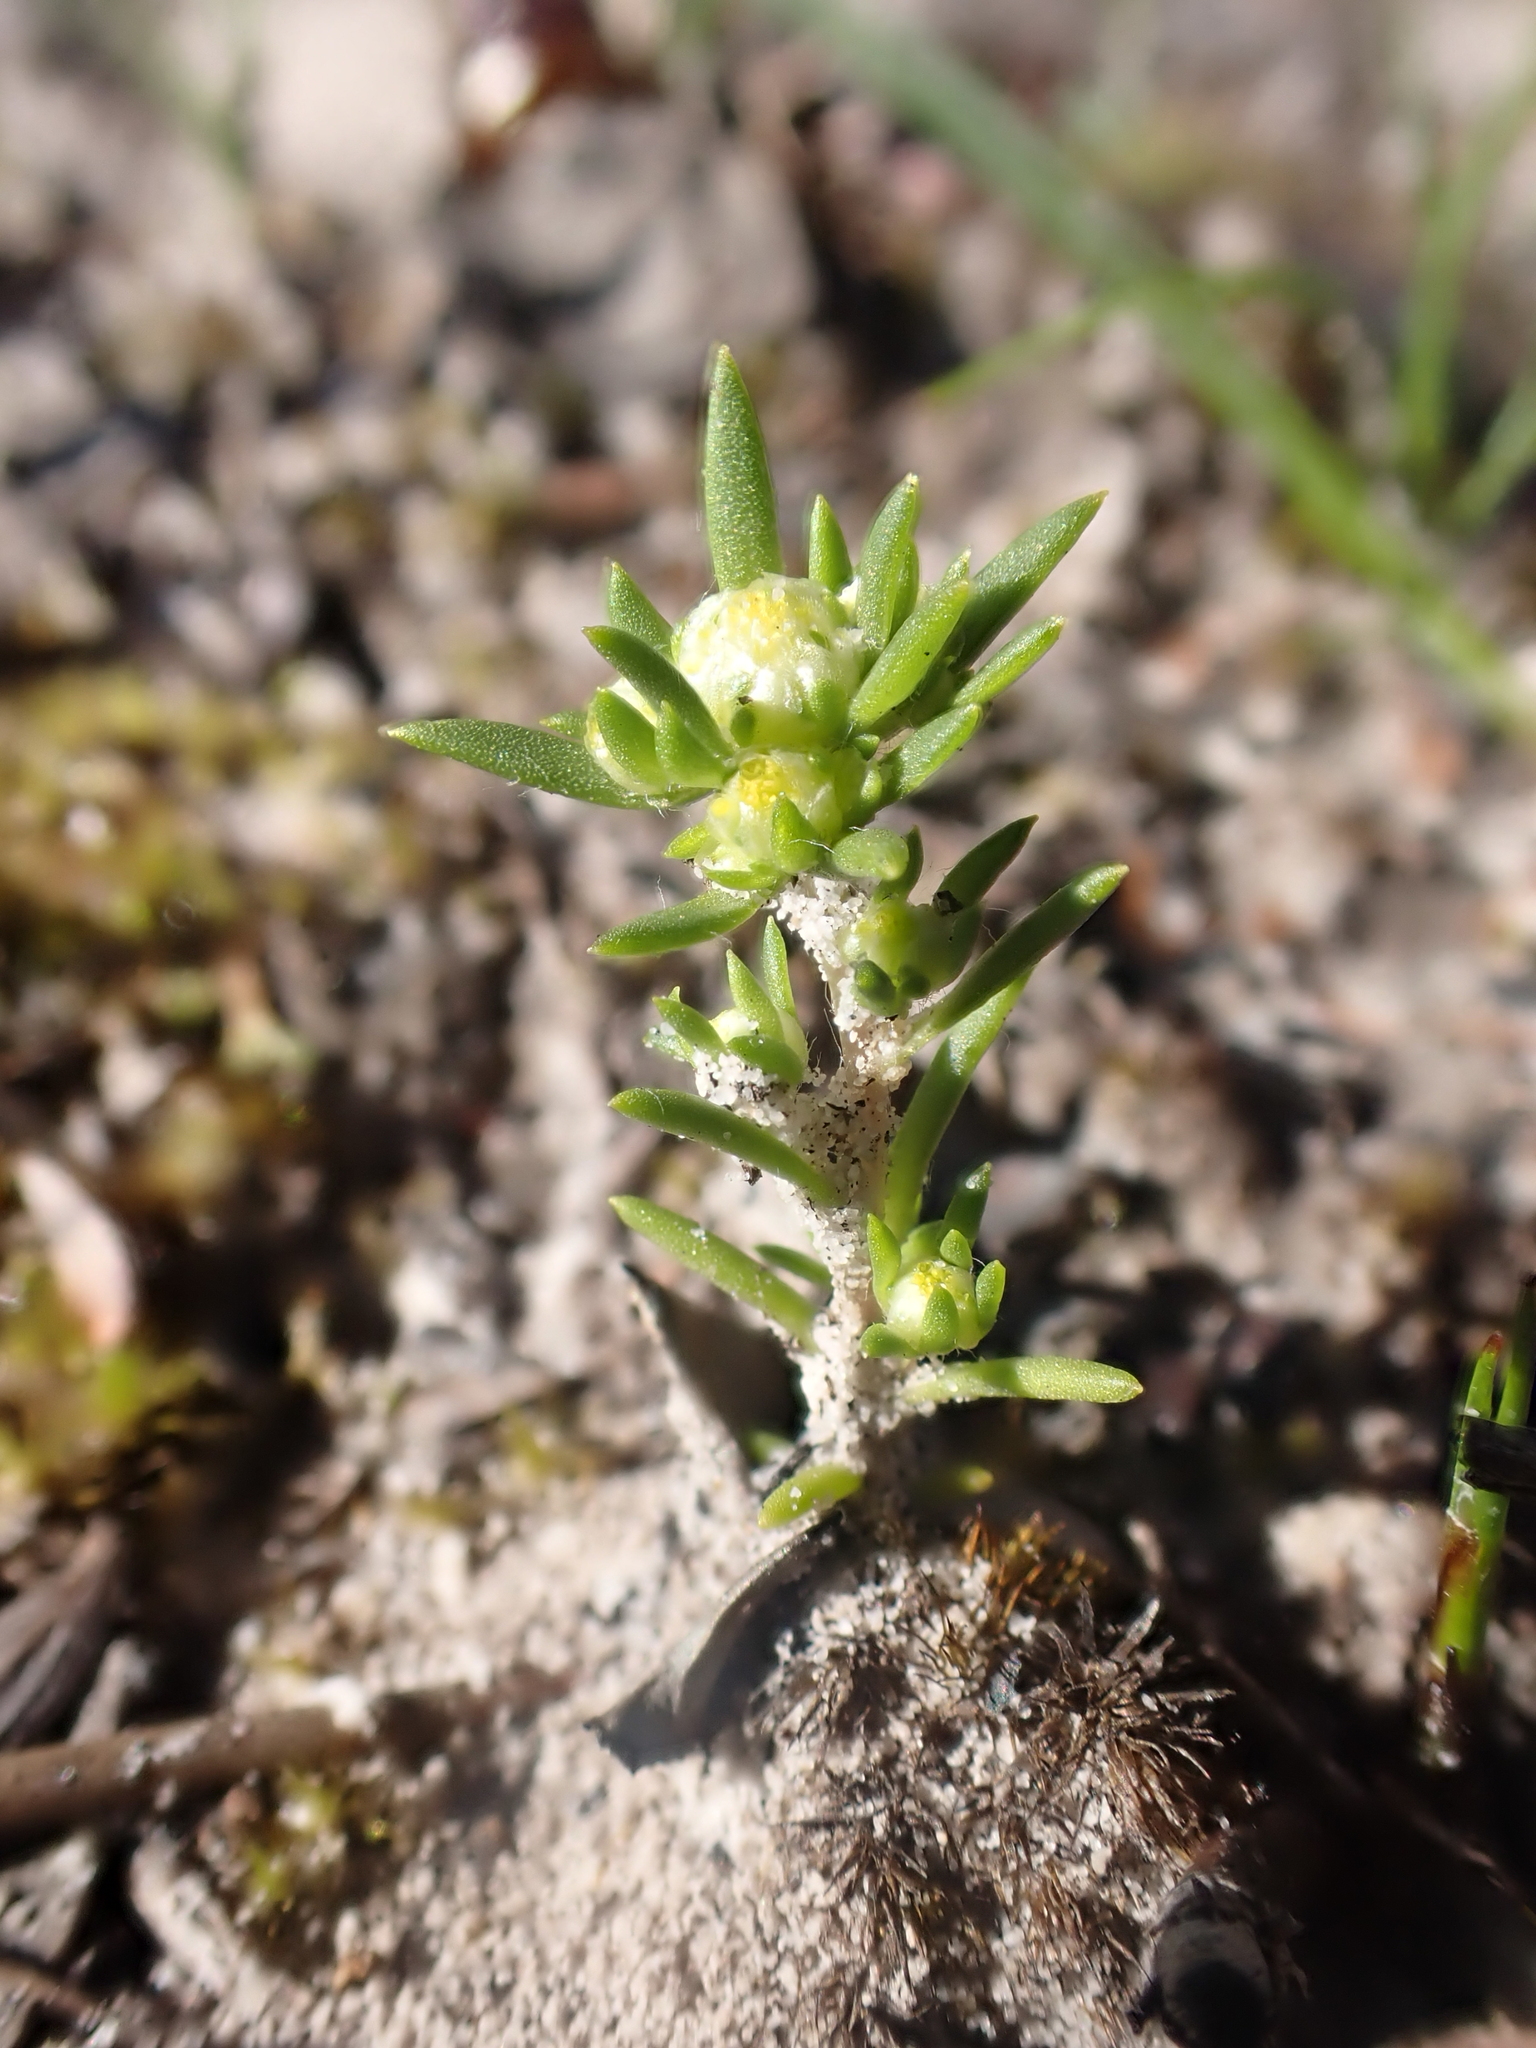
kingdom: Plantae
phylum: Tracheophyta
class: Magnoliopsida
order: Asterales
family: Asteraceae
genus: Siloxerus
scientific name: Siloxerus multiflorus
